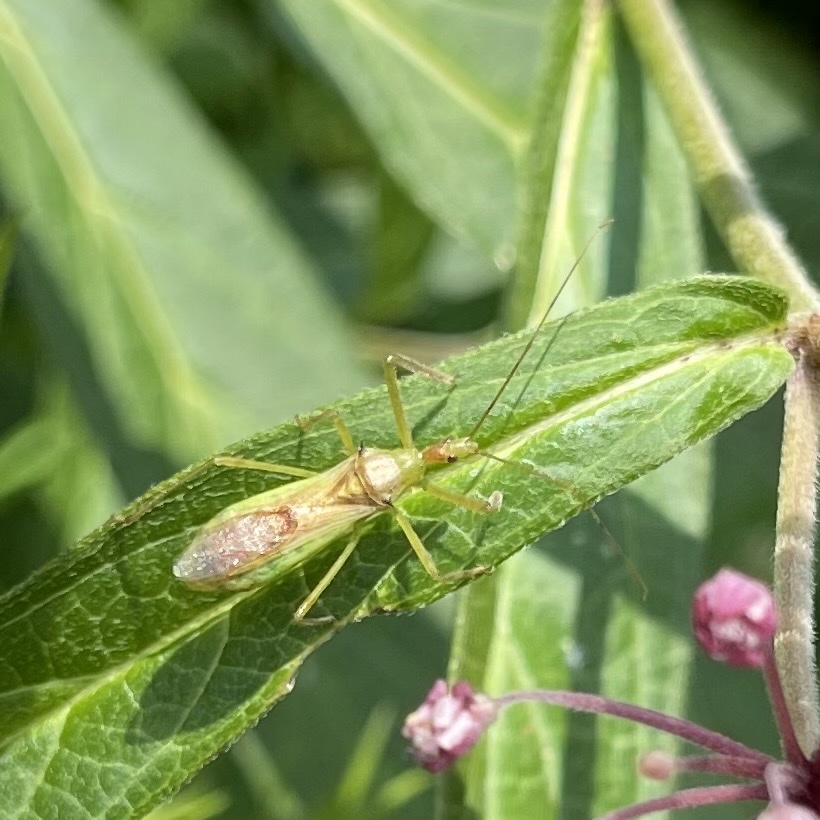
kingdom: Animalia
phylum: Arthropoda
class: Insecta
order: Hemiptera
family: Reduviidae
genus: Zelus
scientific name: Zelus luridus
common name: Pale green assassin bug
